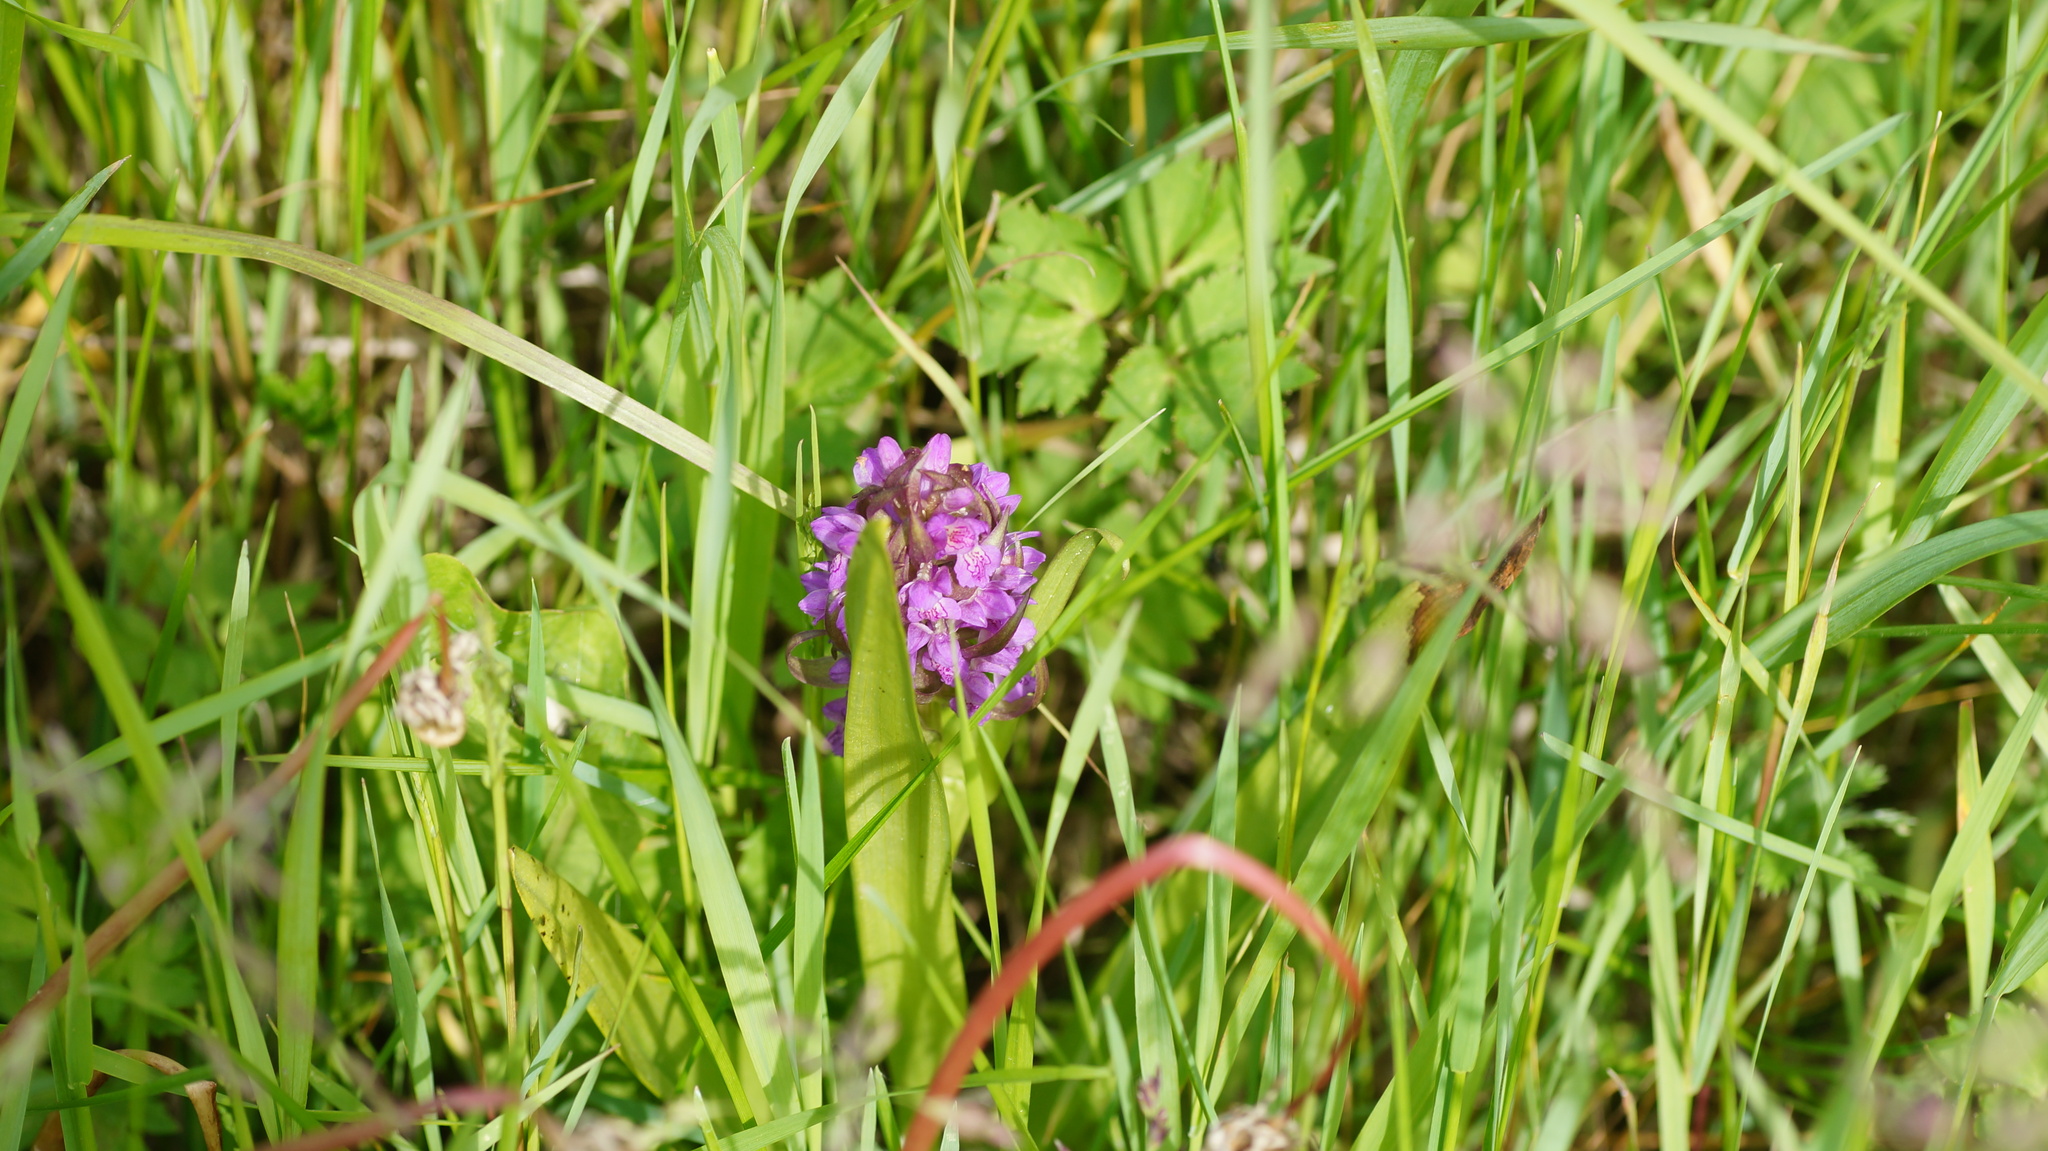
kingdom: Plantae
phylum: Tracheophyta
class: Liliopsida
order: Asparagales
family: Orchidaceae
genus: Dactylorhiza
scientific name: Dactylorhiza incarnata
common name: Early marsh-orchid
